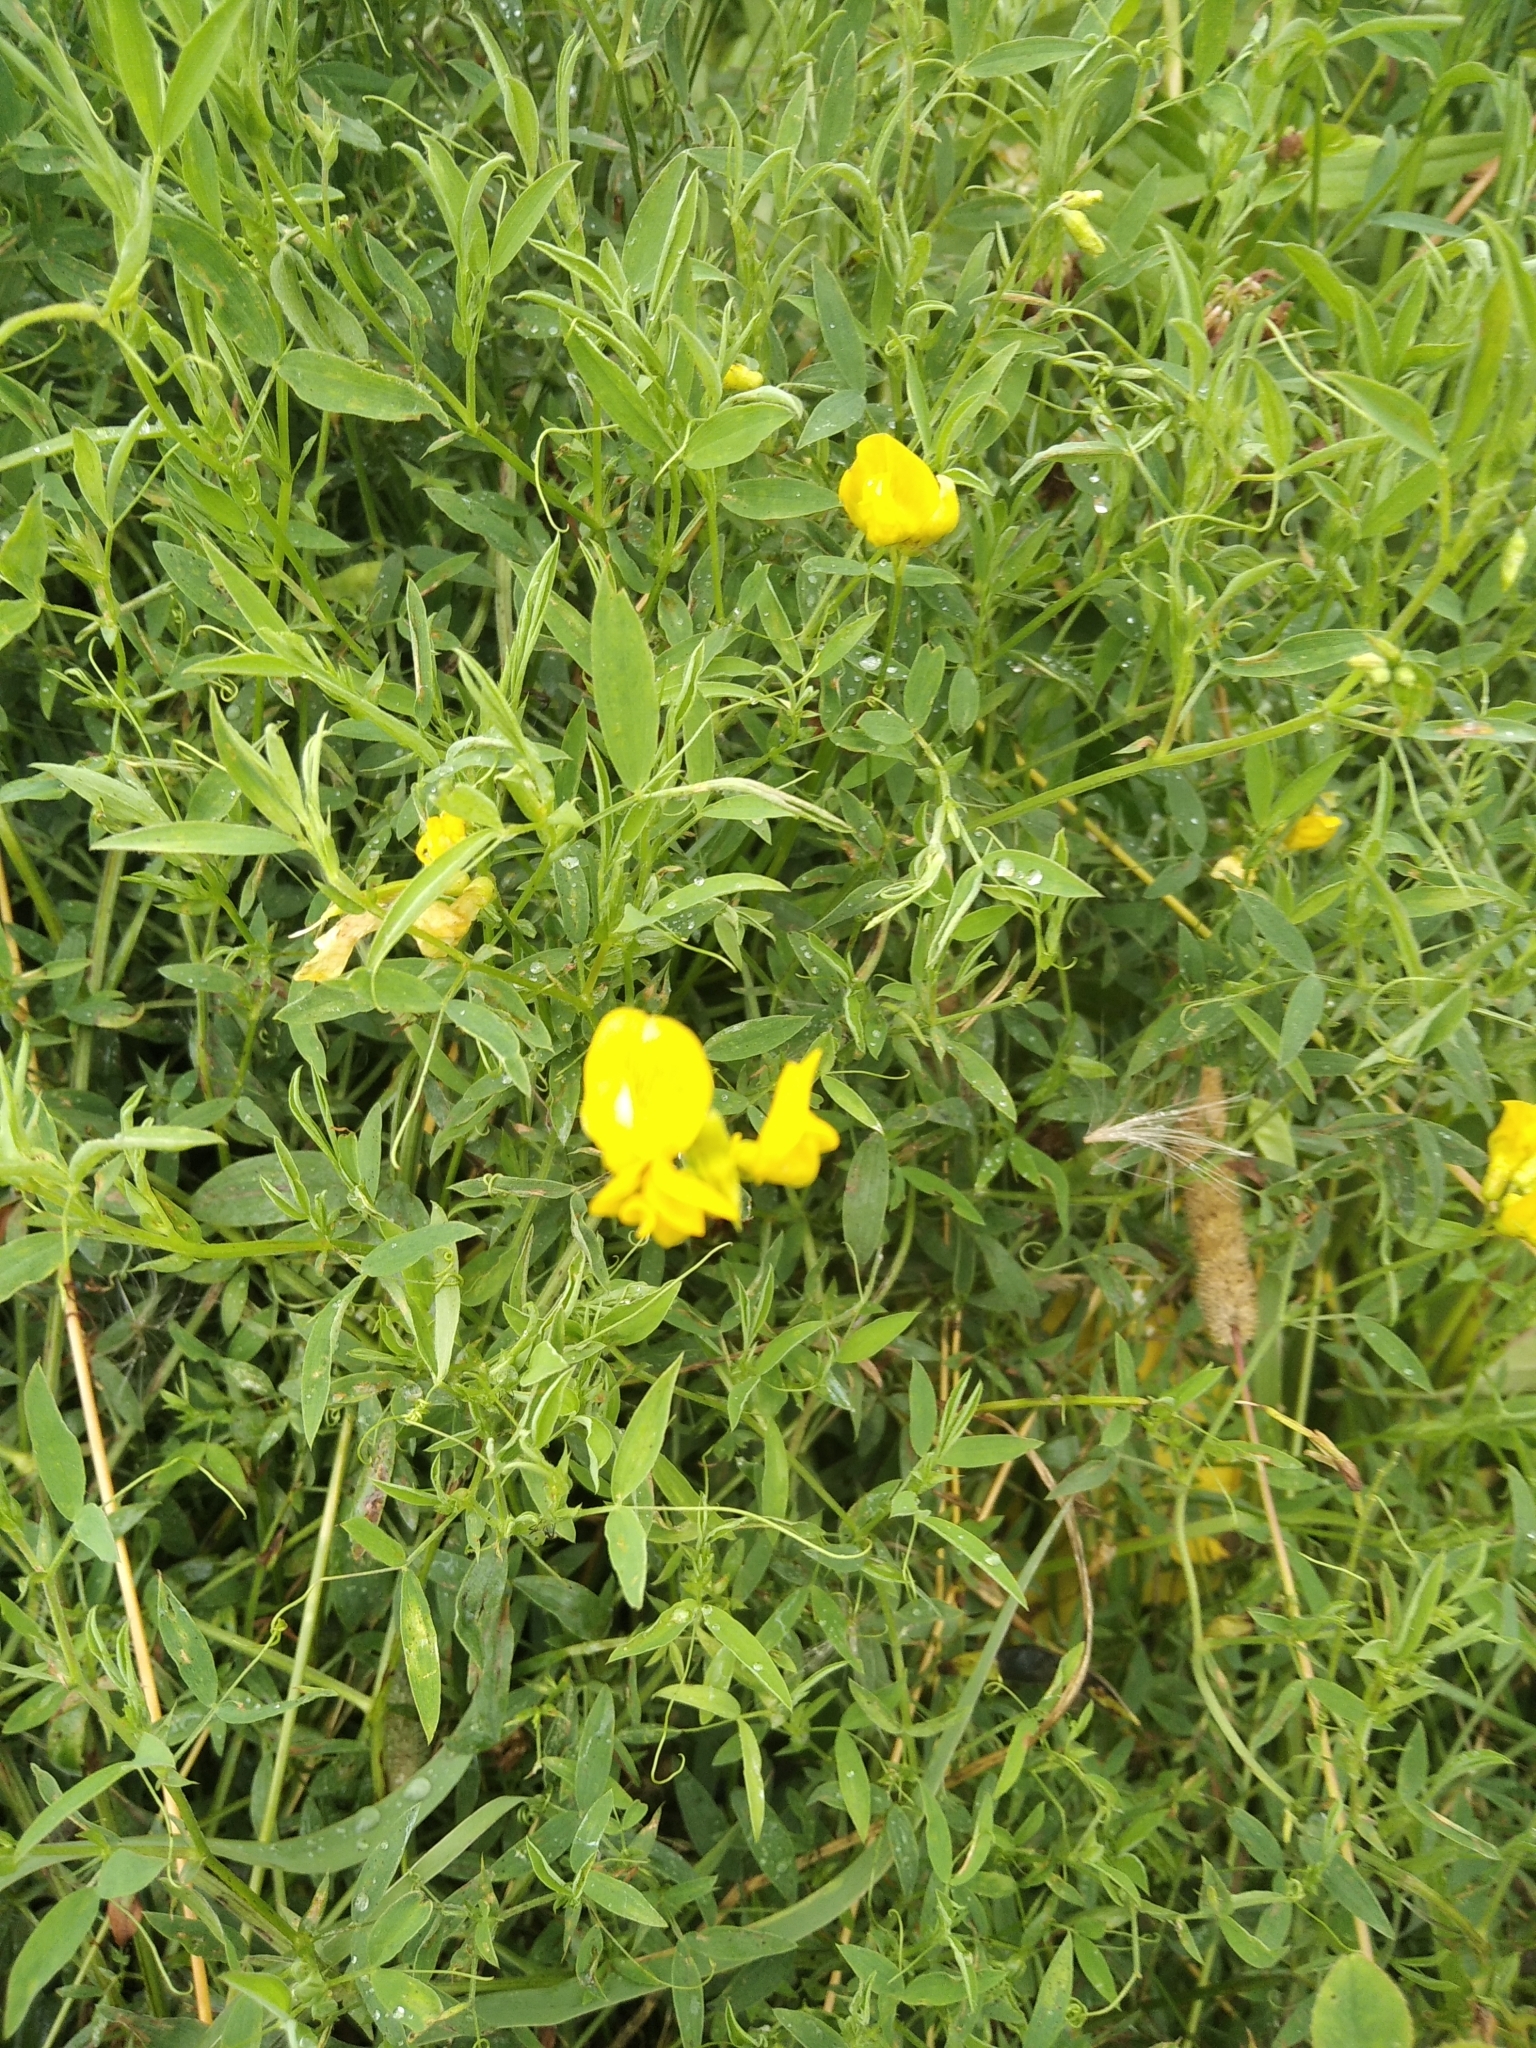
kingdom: Plantae
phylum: Tracheophyta
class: Magnoliopsida
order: Fabales
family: Fabaceae
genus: Lathyrus
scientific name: Lathyrus pratensis
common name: Meadow vetchling
